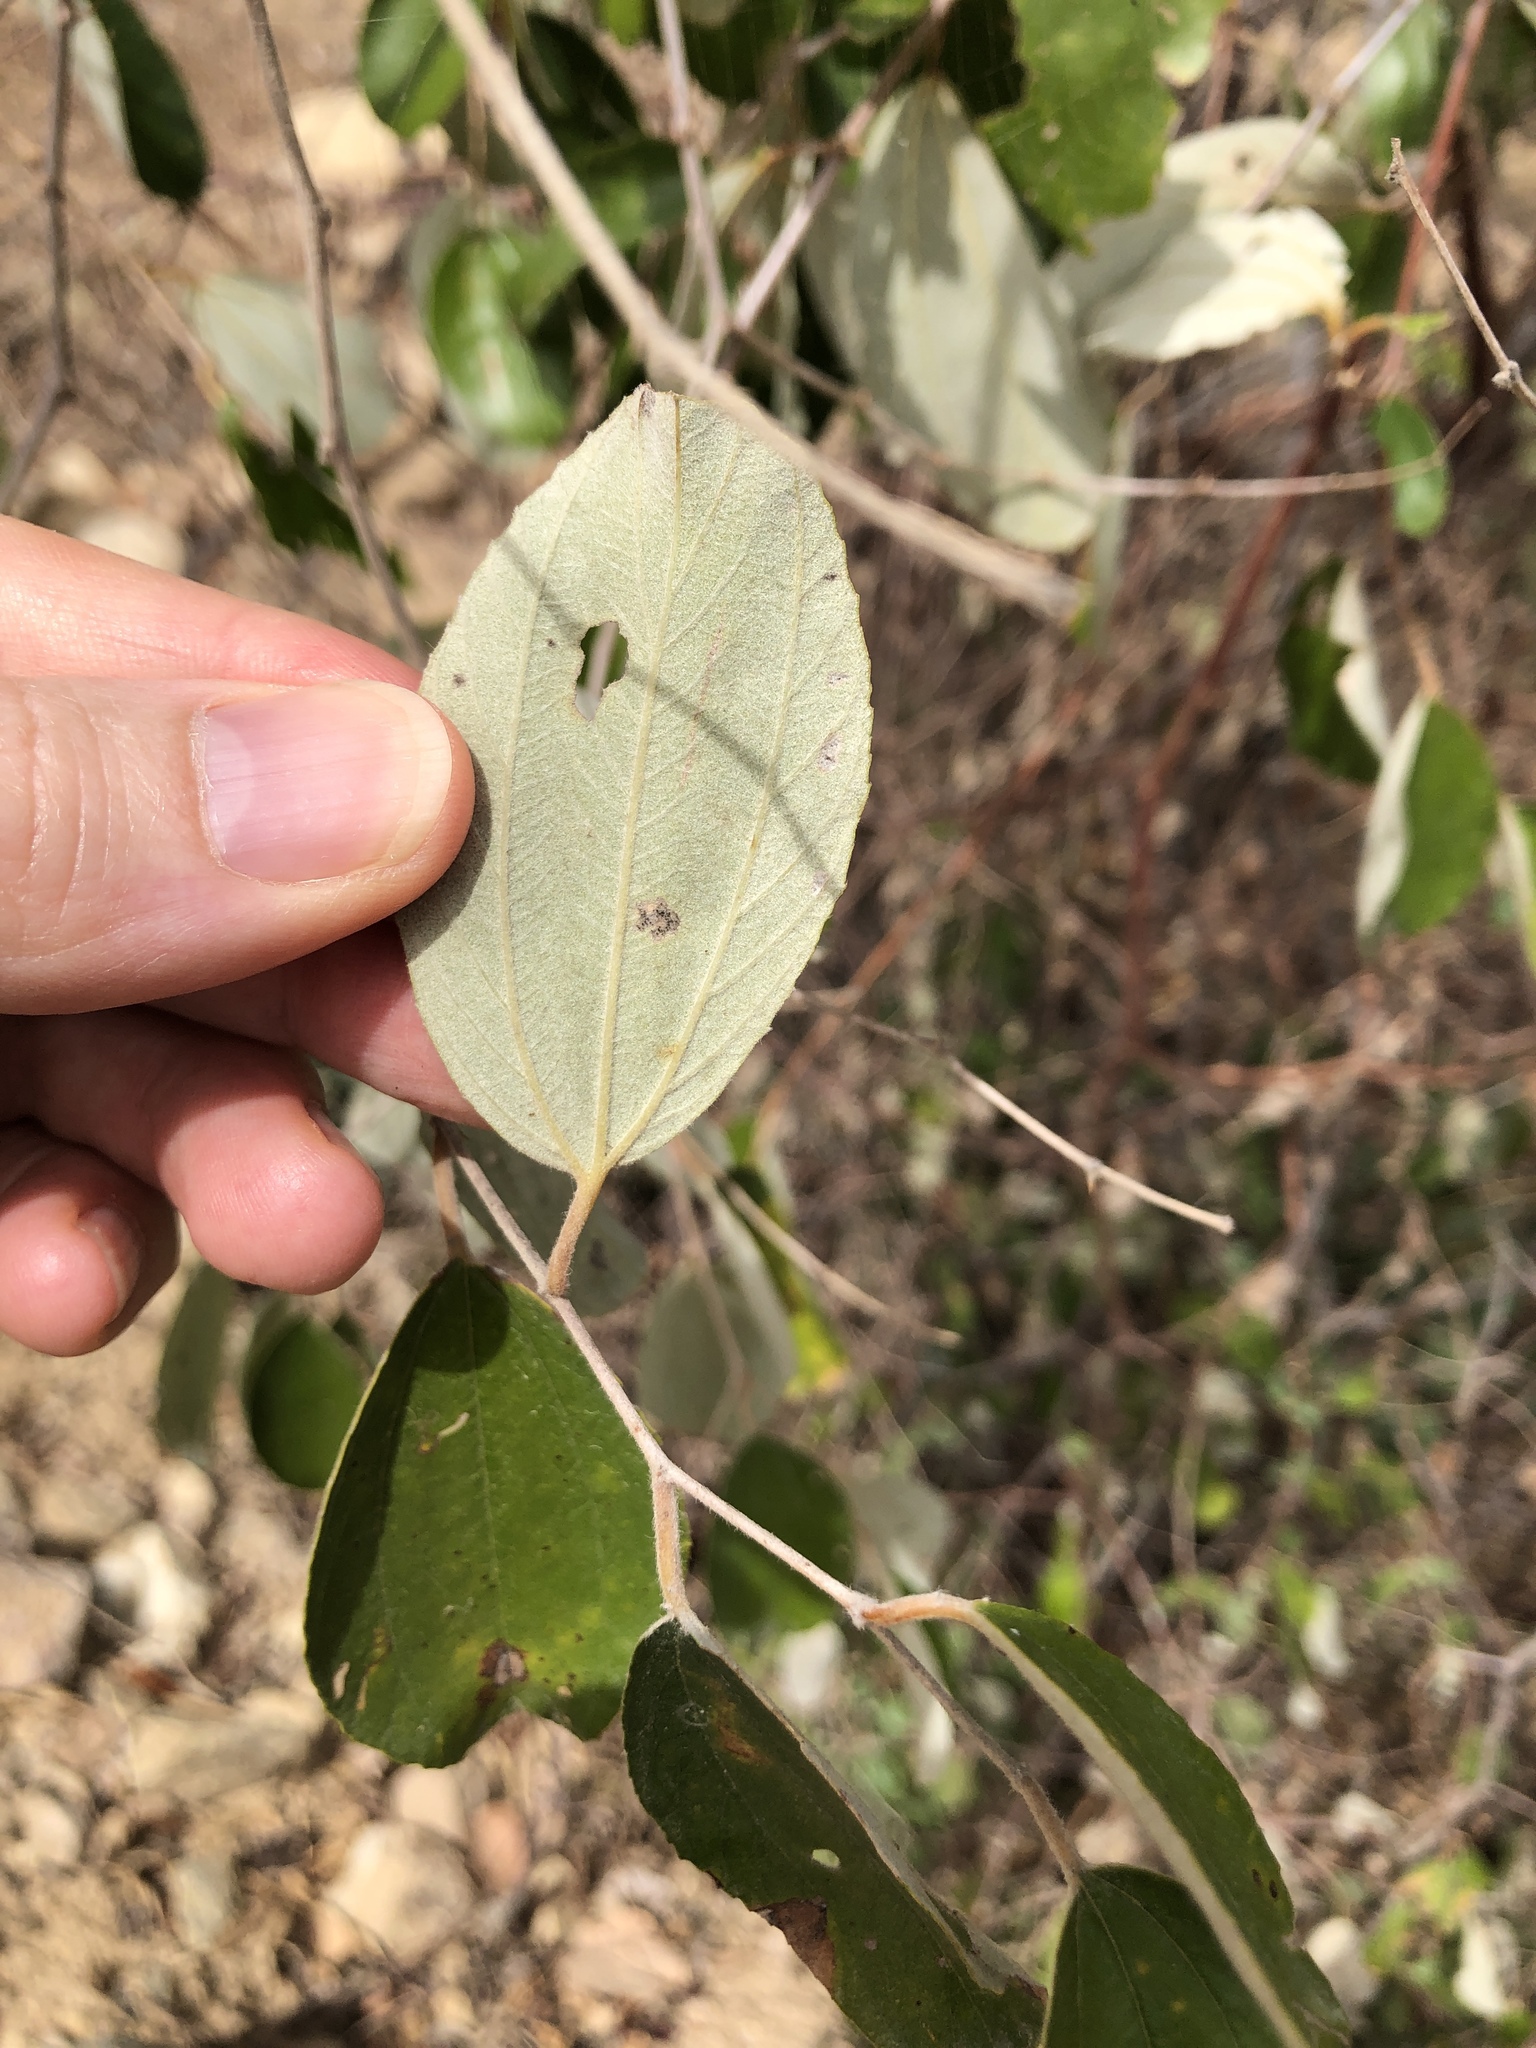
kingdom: Plantae
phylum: Tracheophyta
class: Magnoliopsida
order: Rosales
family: Rhamnaceae
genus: Ziziphus
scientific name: Ziziphus mauritiana
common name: Indian jujube
